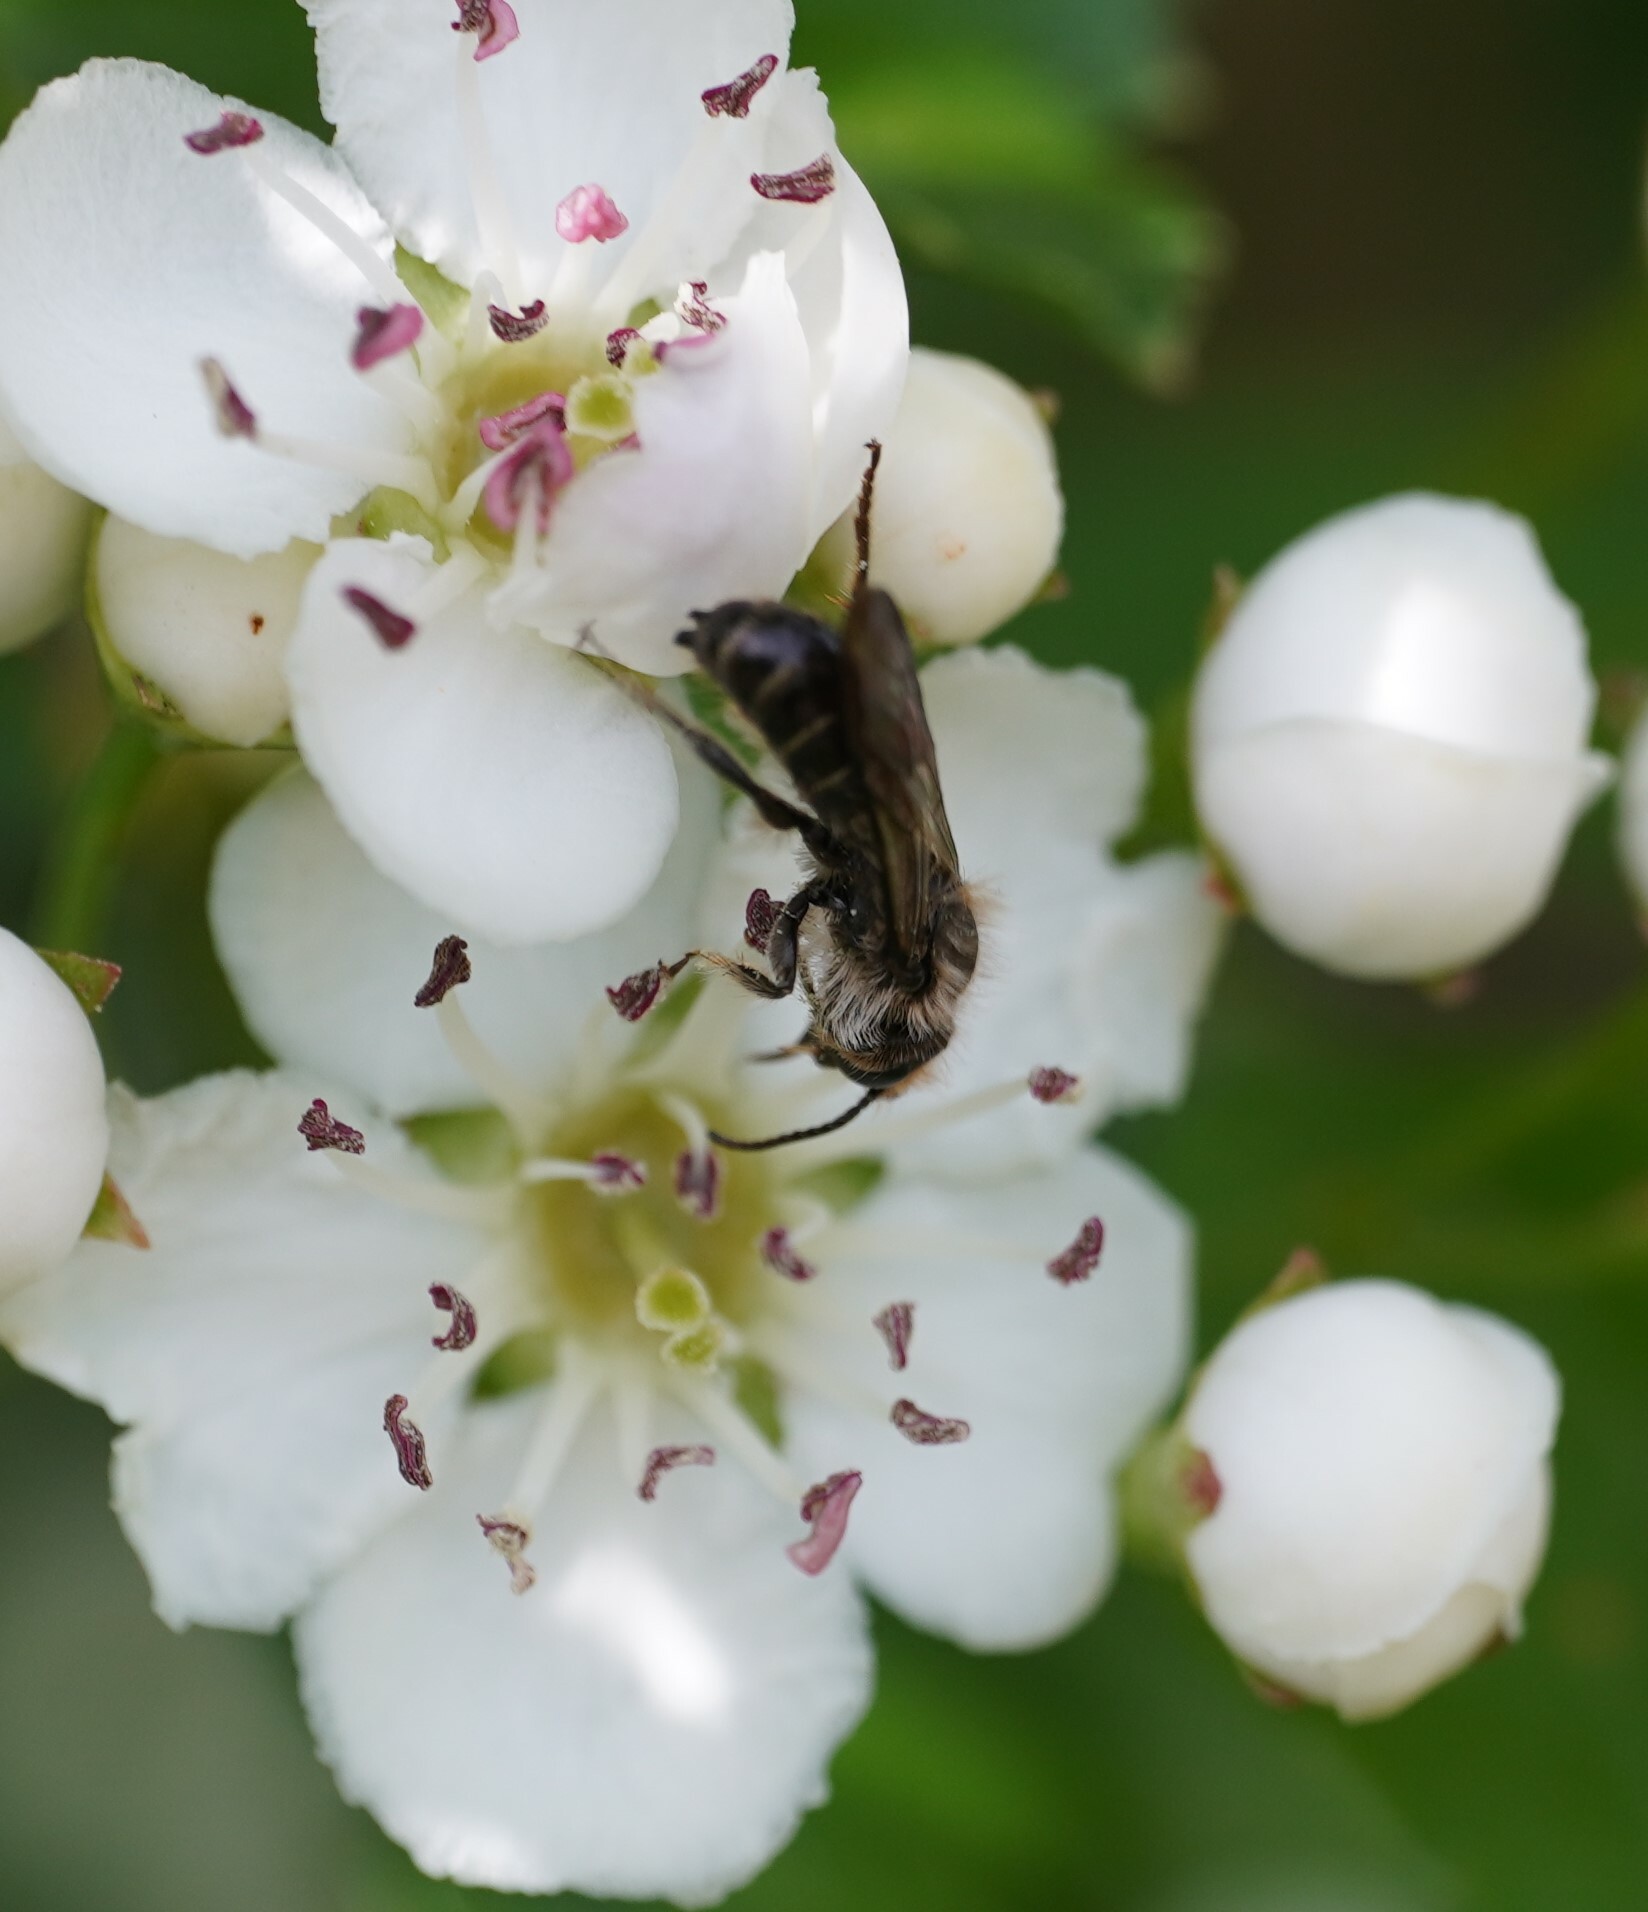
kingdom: Animalia
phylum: Arthropoda
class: Insecta
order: Hymenoptera
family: Megachilidae
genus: Chelostoma
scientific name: Chelostoma florisomne
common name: Sleepy carpenter bee
